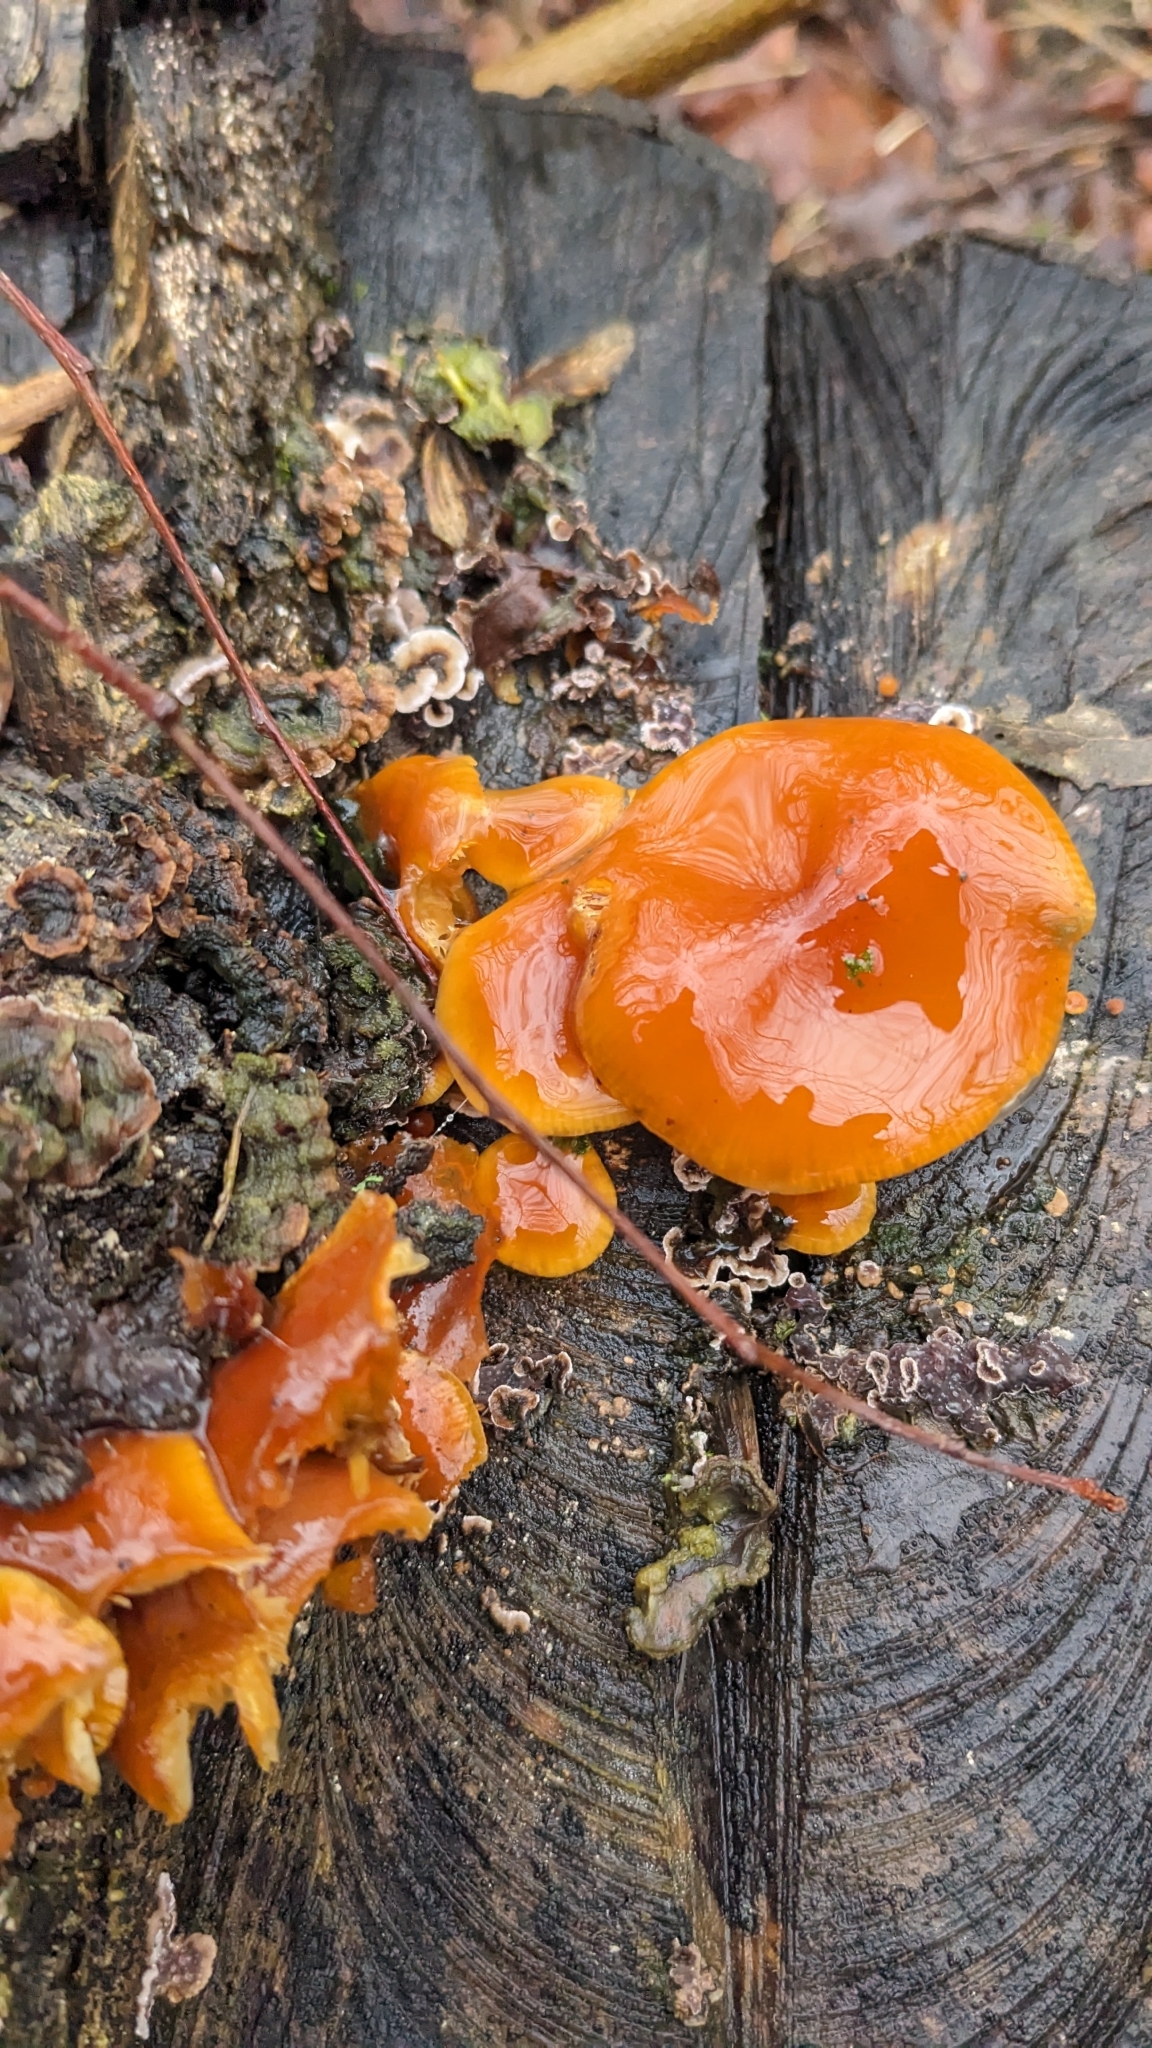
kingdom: Fungi
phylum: Basidiomycota
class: Agaricomycetes
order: Agaricales
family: Physalacriaceae
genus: Flammulina
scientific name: Flammulina
